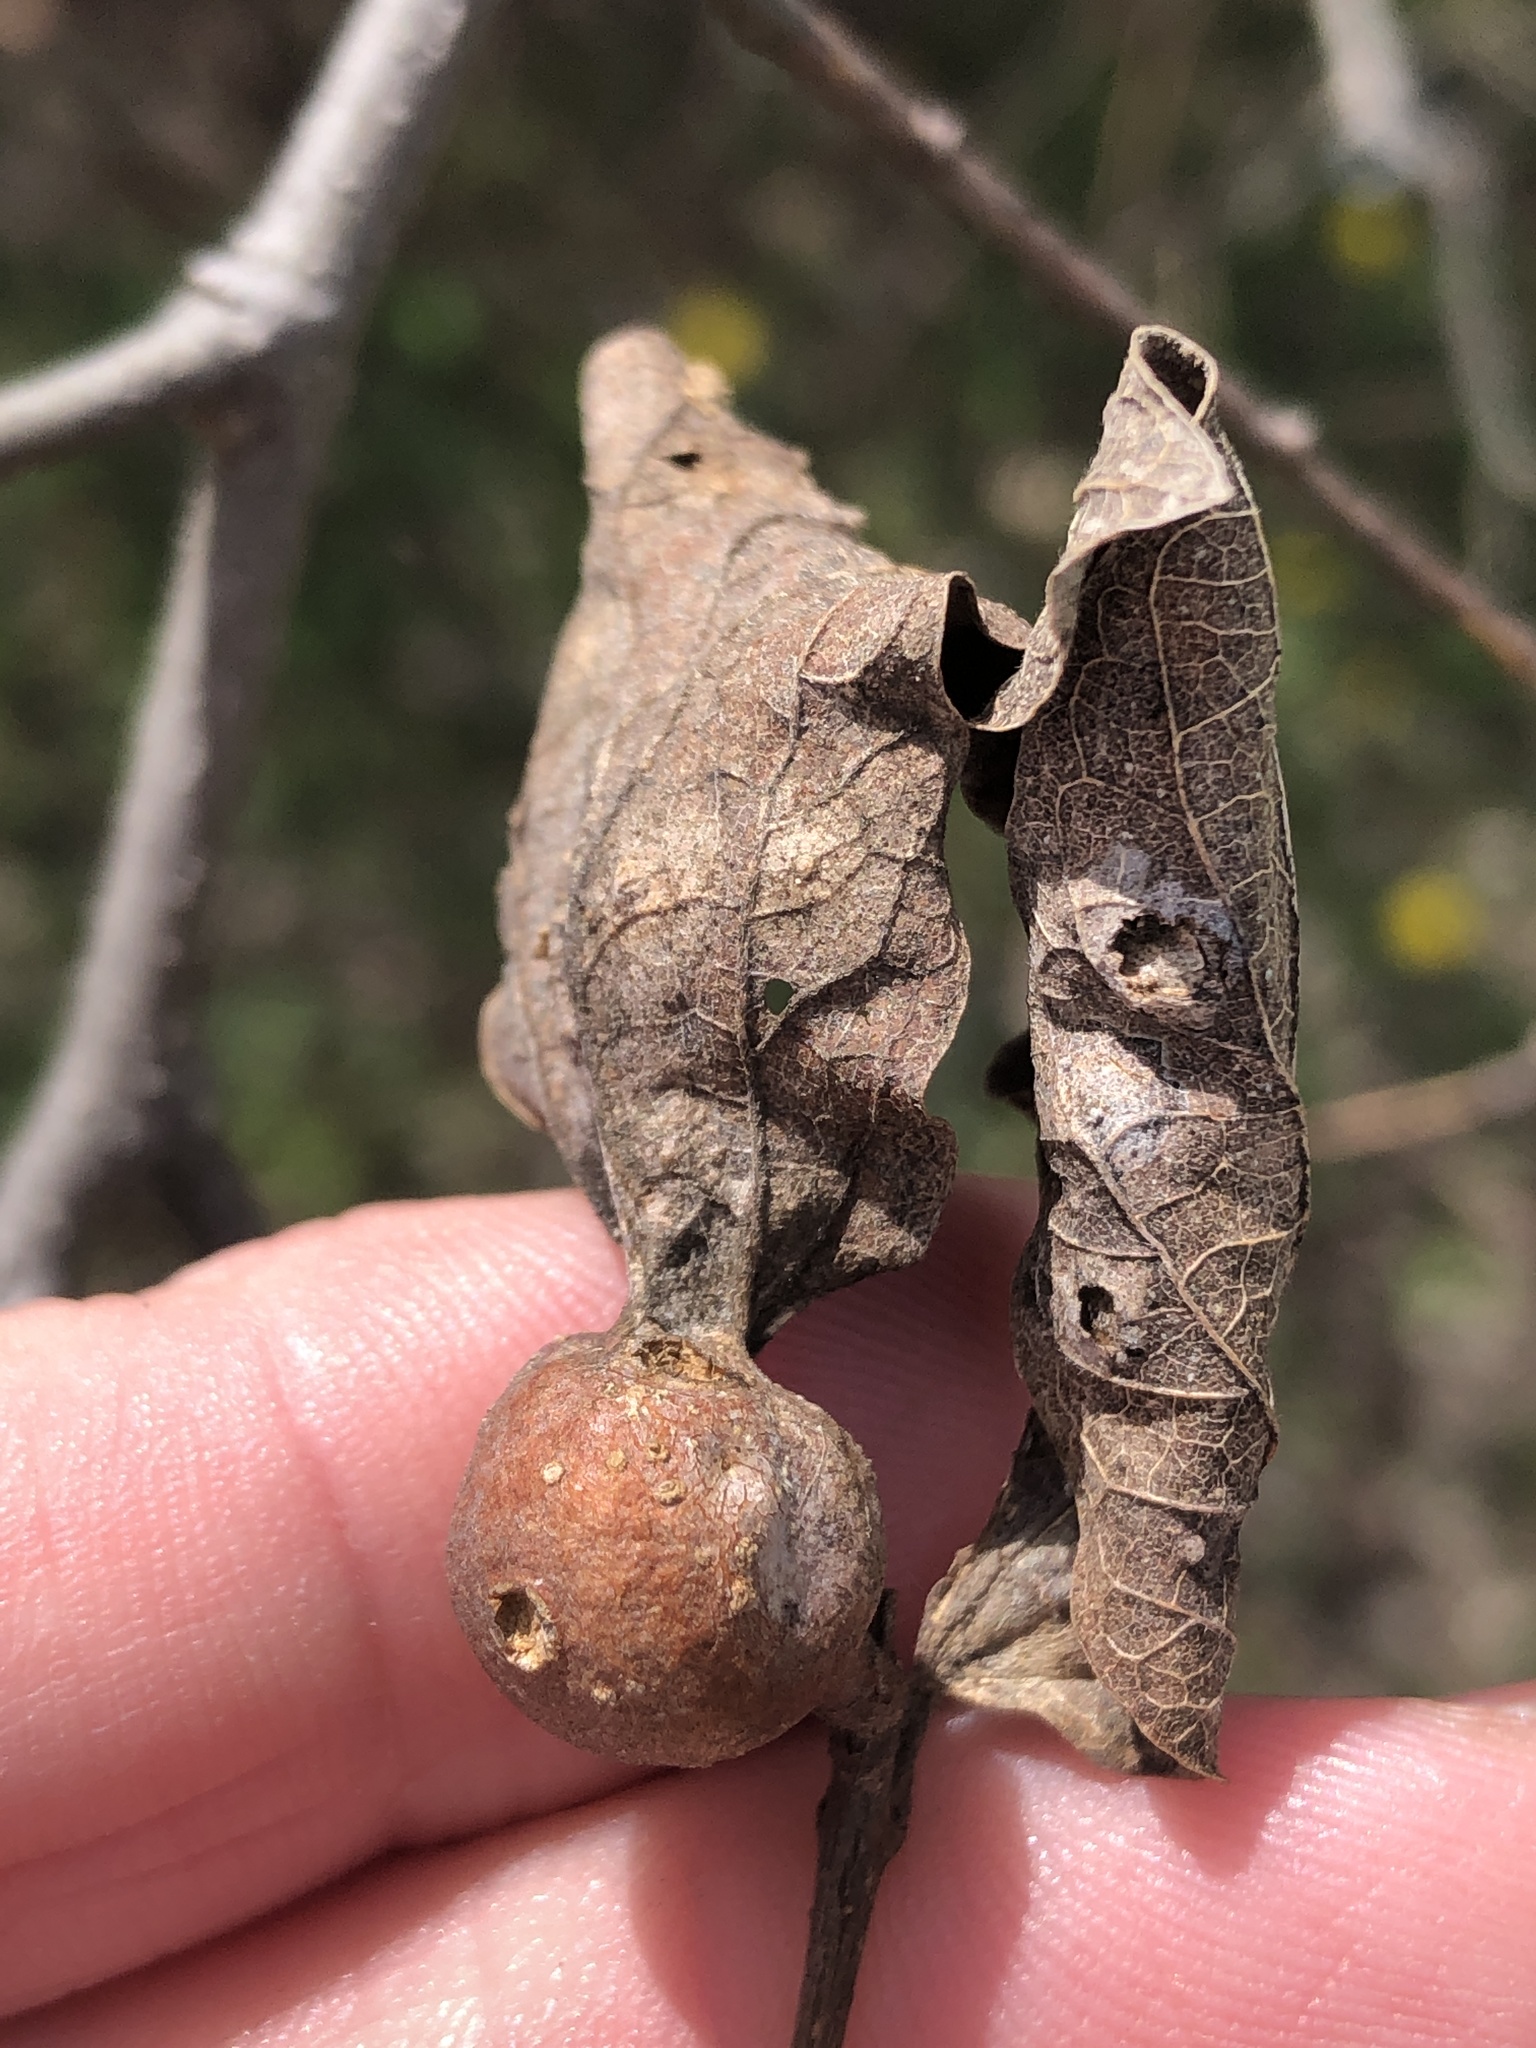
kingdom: Animalia
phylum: Arthropoda
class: Insecta
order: Hemiptera
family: Aphalaridae
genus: Pachypsylla
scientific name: Pachypsylla venusta
